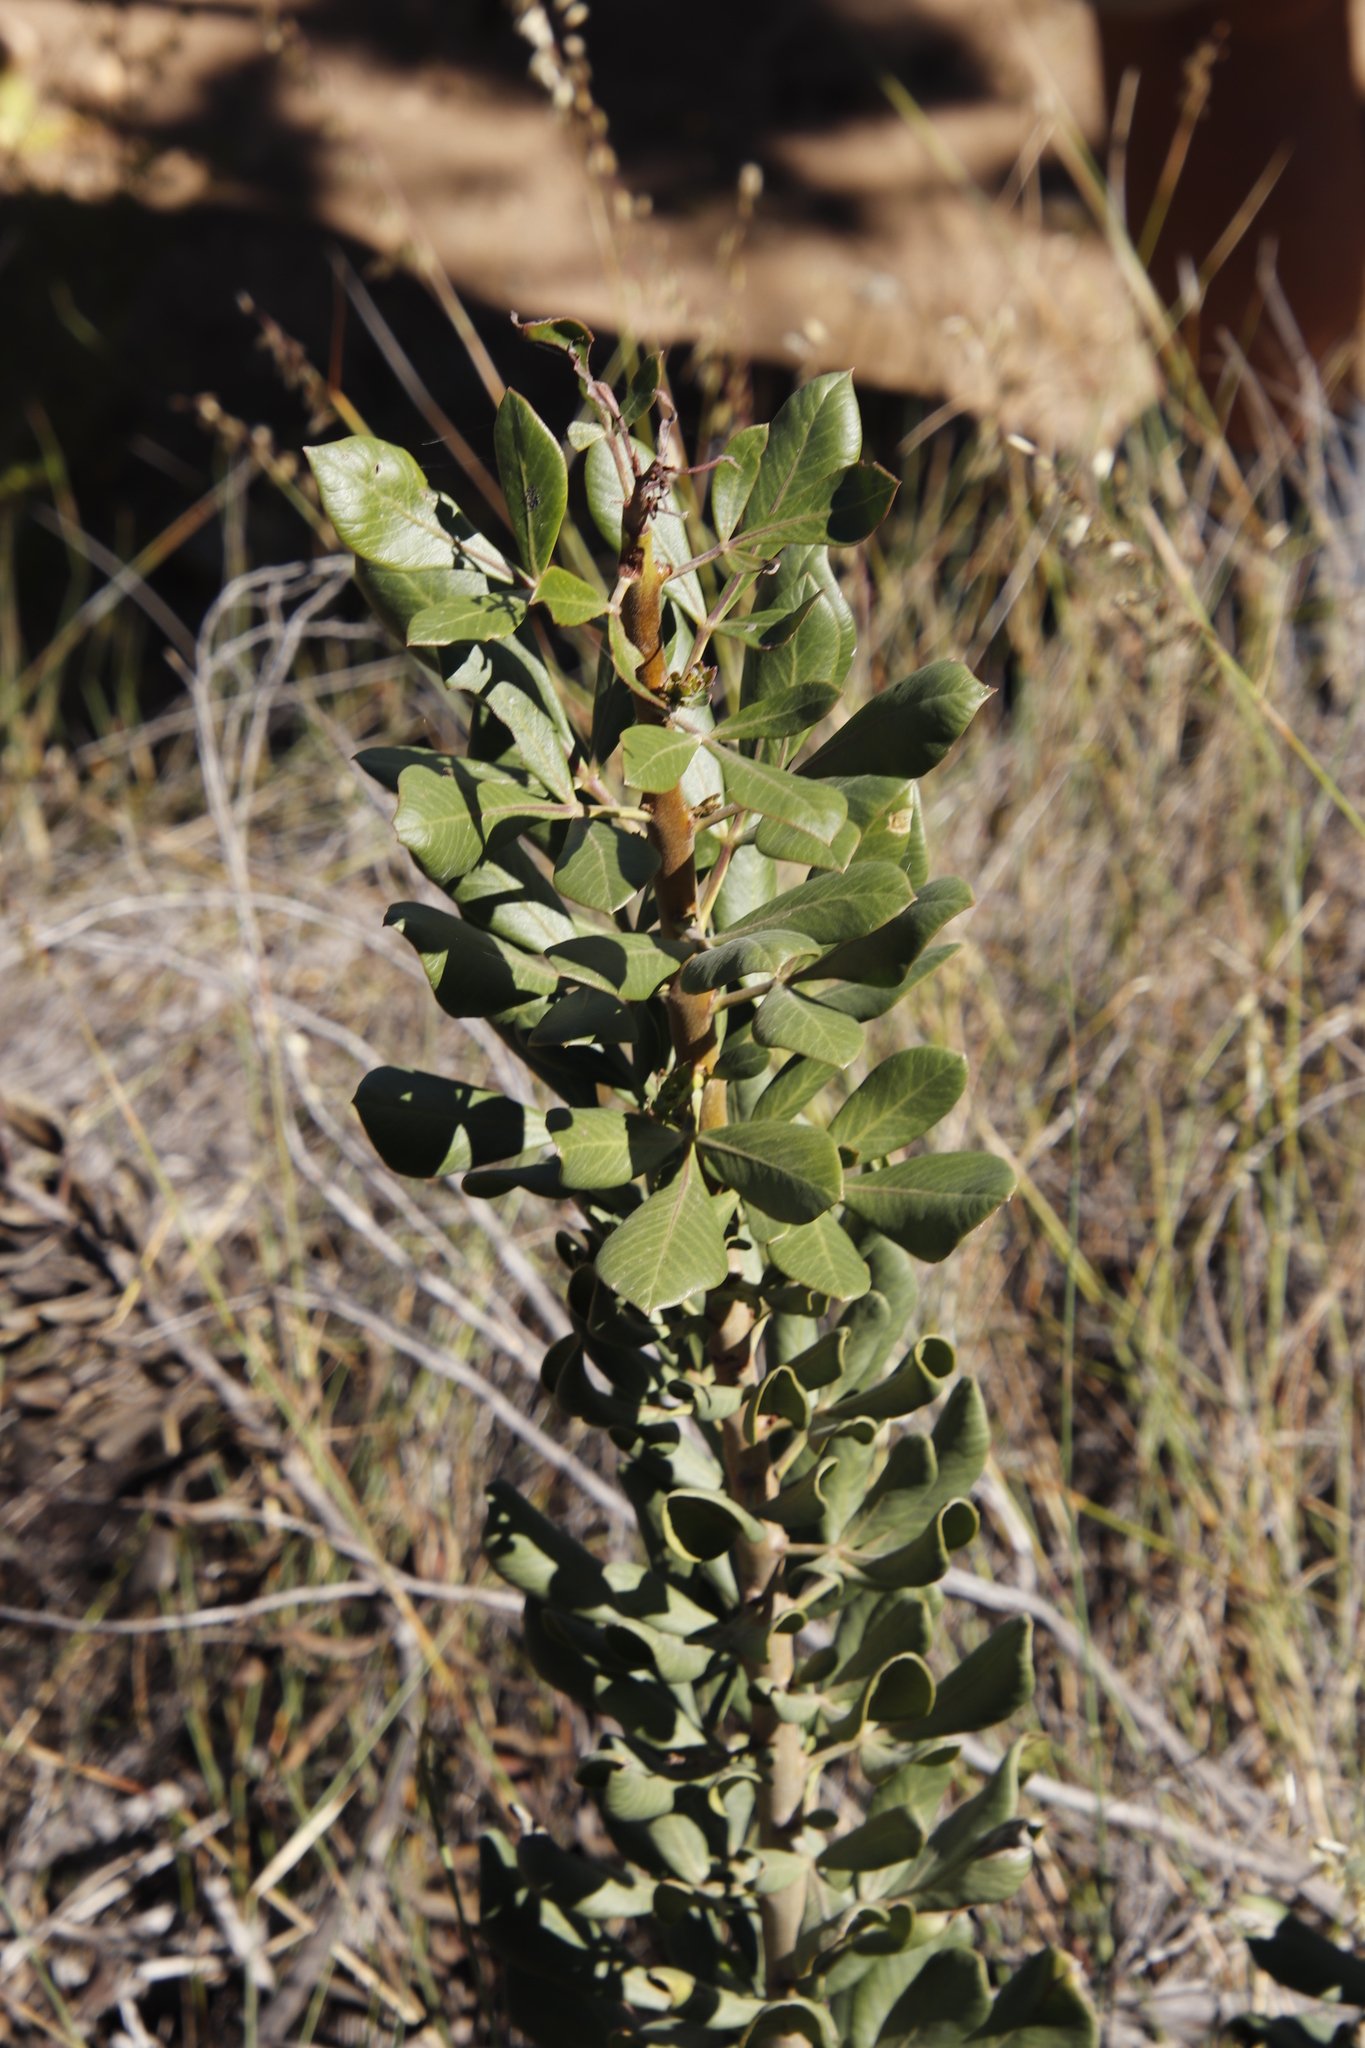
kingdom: Plantae
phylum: Tracheophyta
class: Magnoliopsida
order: Sapindales
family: Anacardiaceae
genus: Searsia
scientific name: Searsia scytophylla
